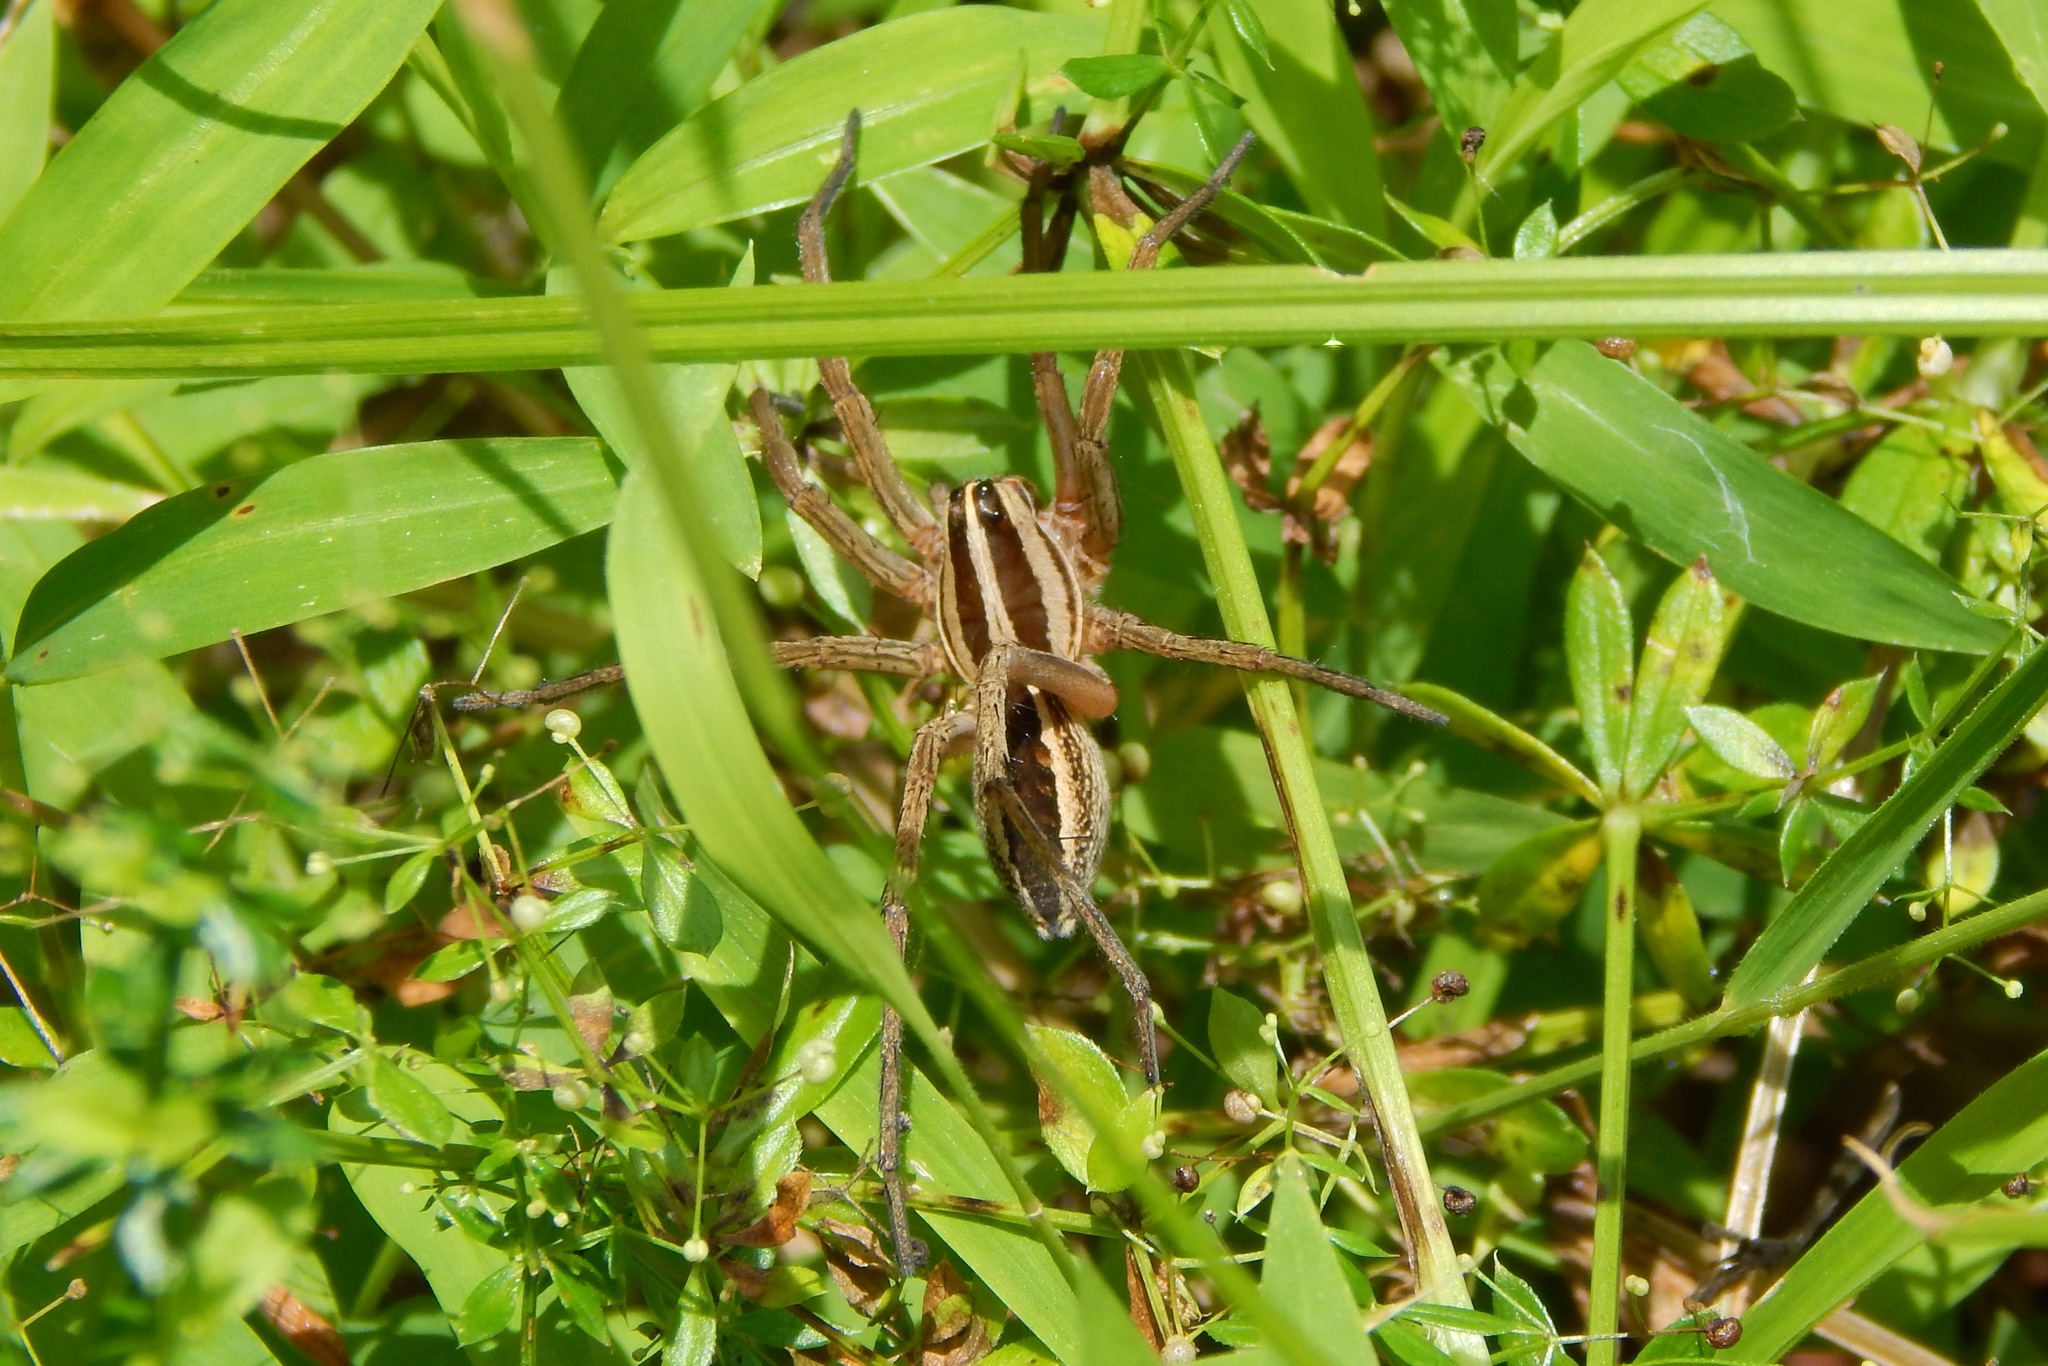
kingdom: Animalia
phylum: Arthropoda
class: Arachnida
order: Araneae
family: Lycosidae
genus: Rabidosa
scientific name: Rabidosa rabida
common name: Rabid wolf spider
